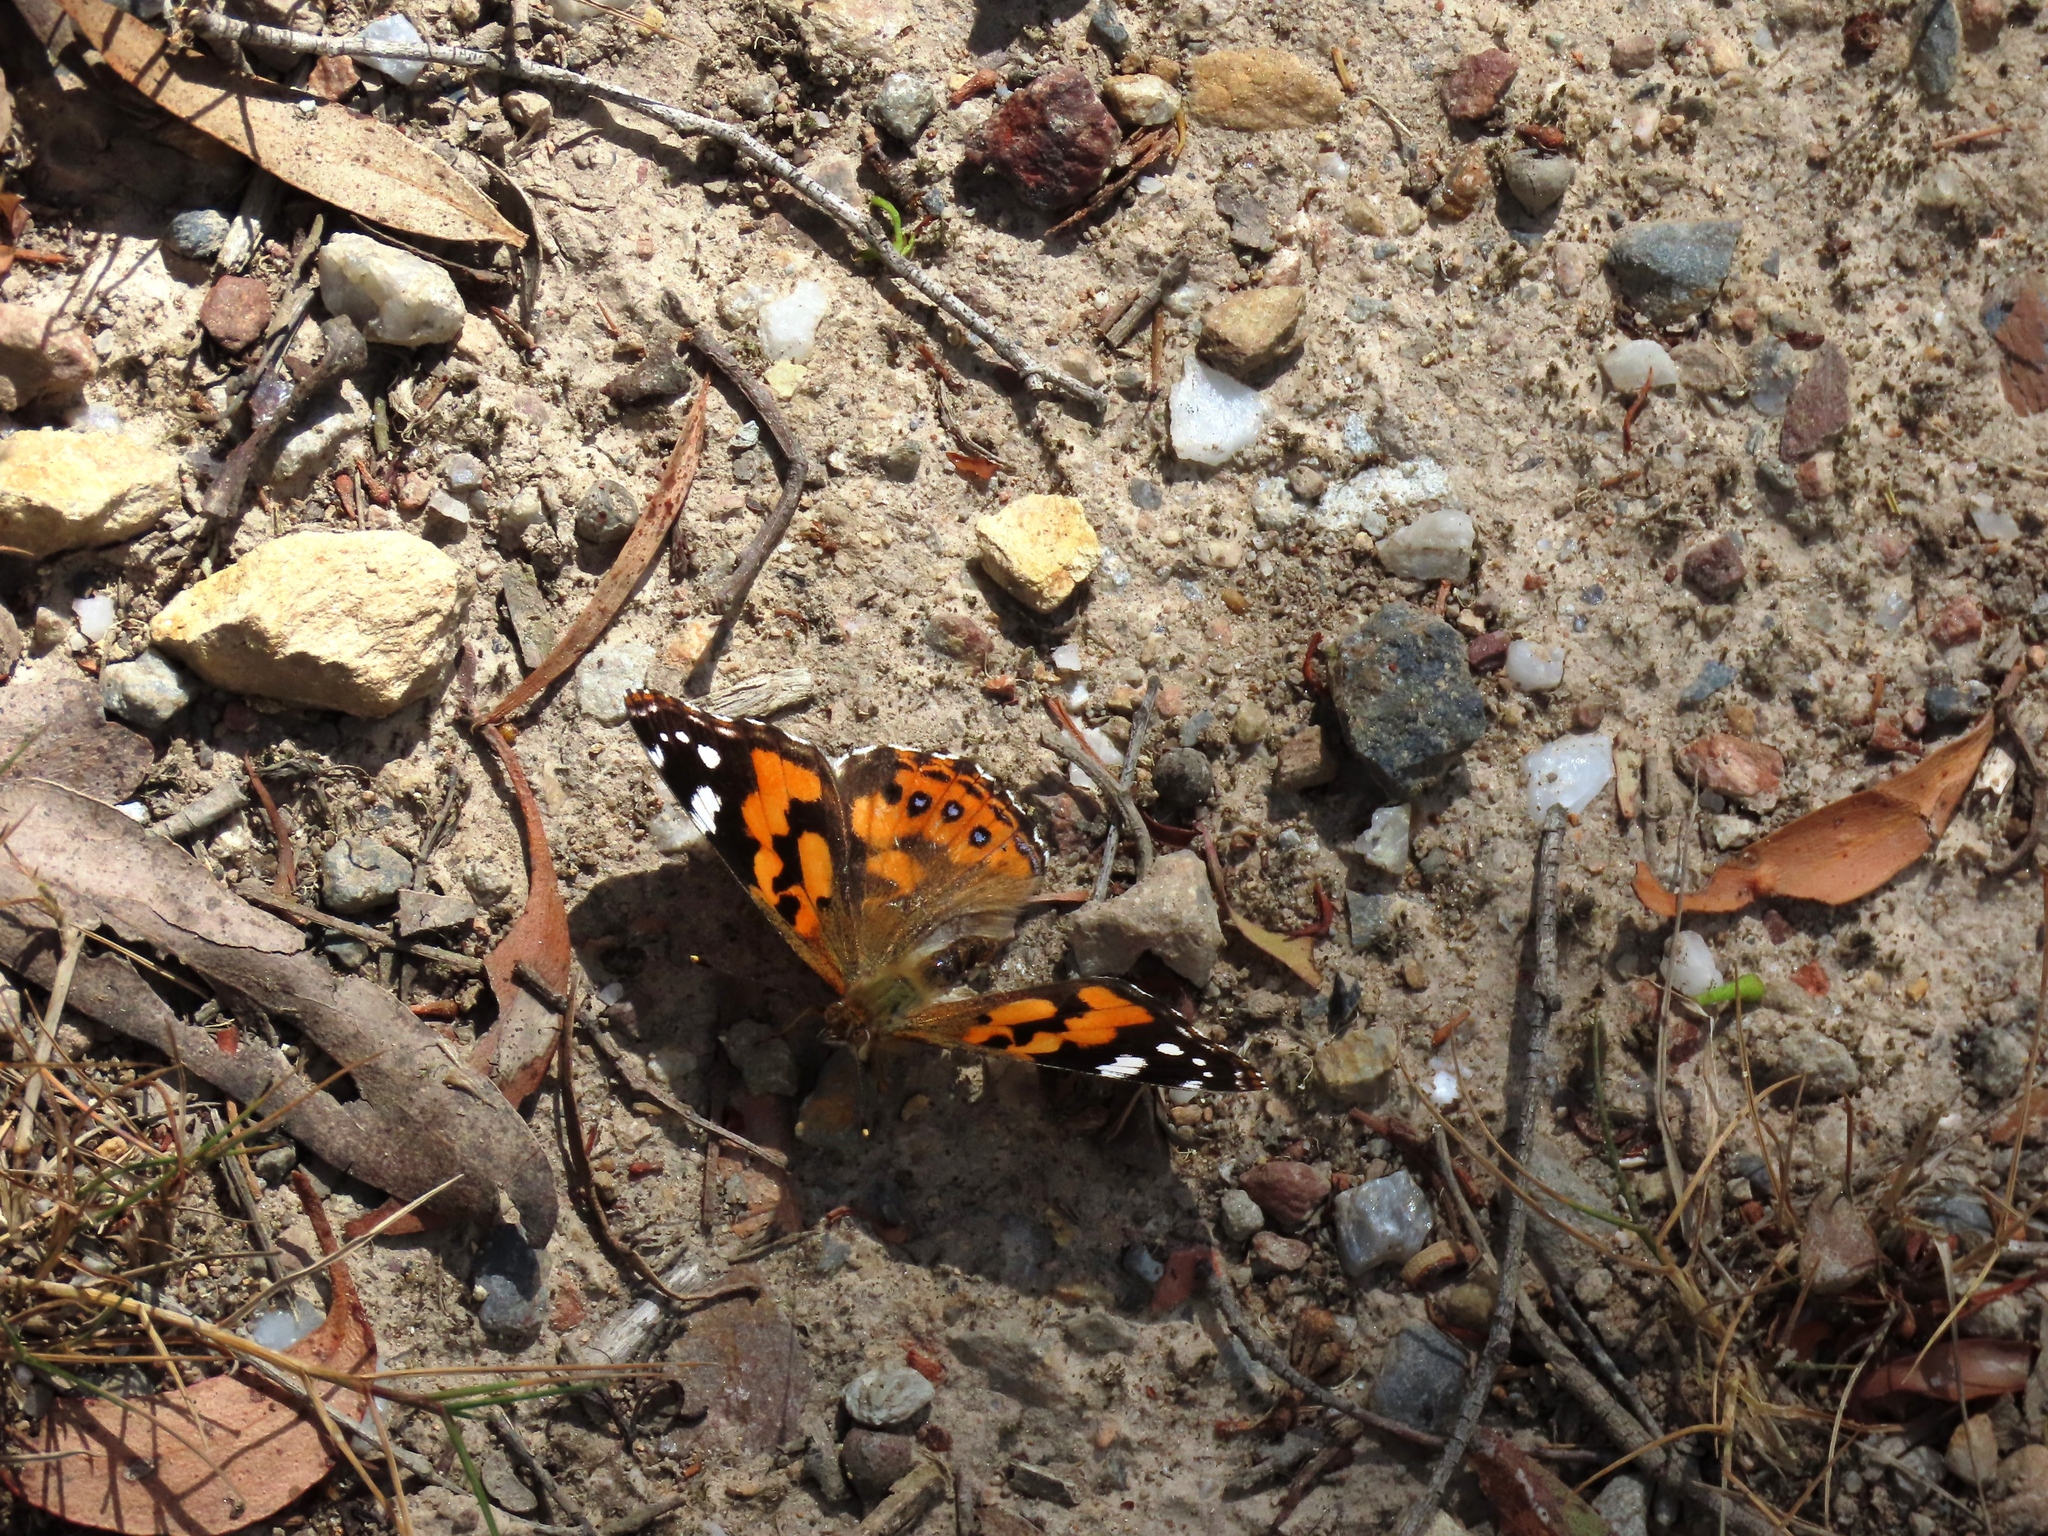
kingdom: Animalia
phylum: Arthropoda
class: Insecta
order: Lepidoptera
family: Nymphalidae
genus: Vanessa
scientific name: Vanessa kershawi
